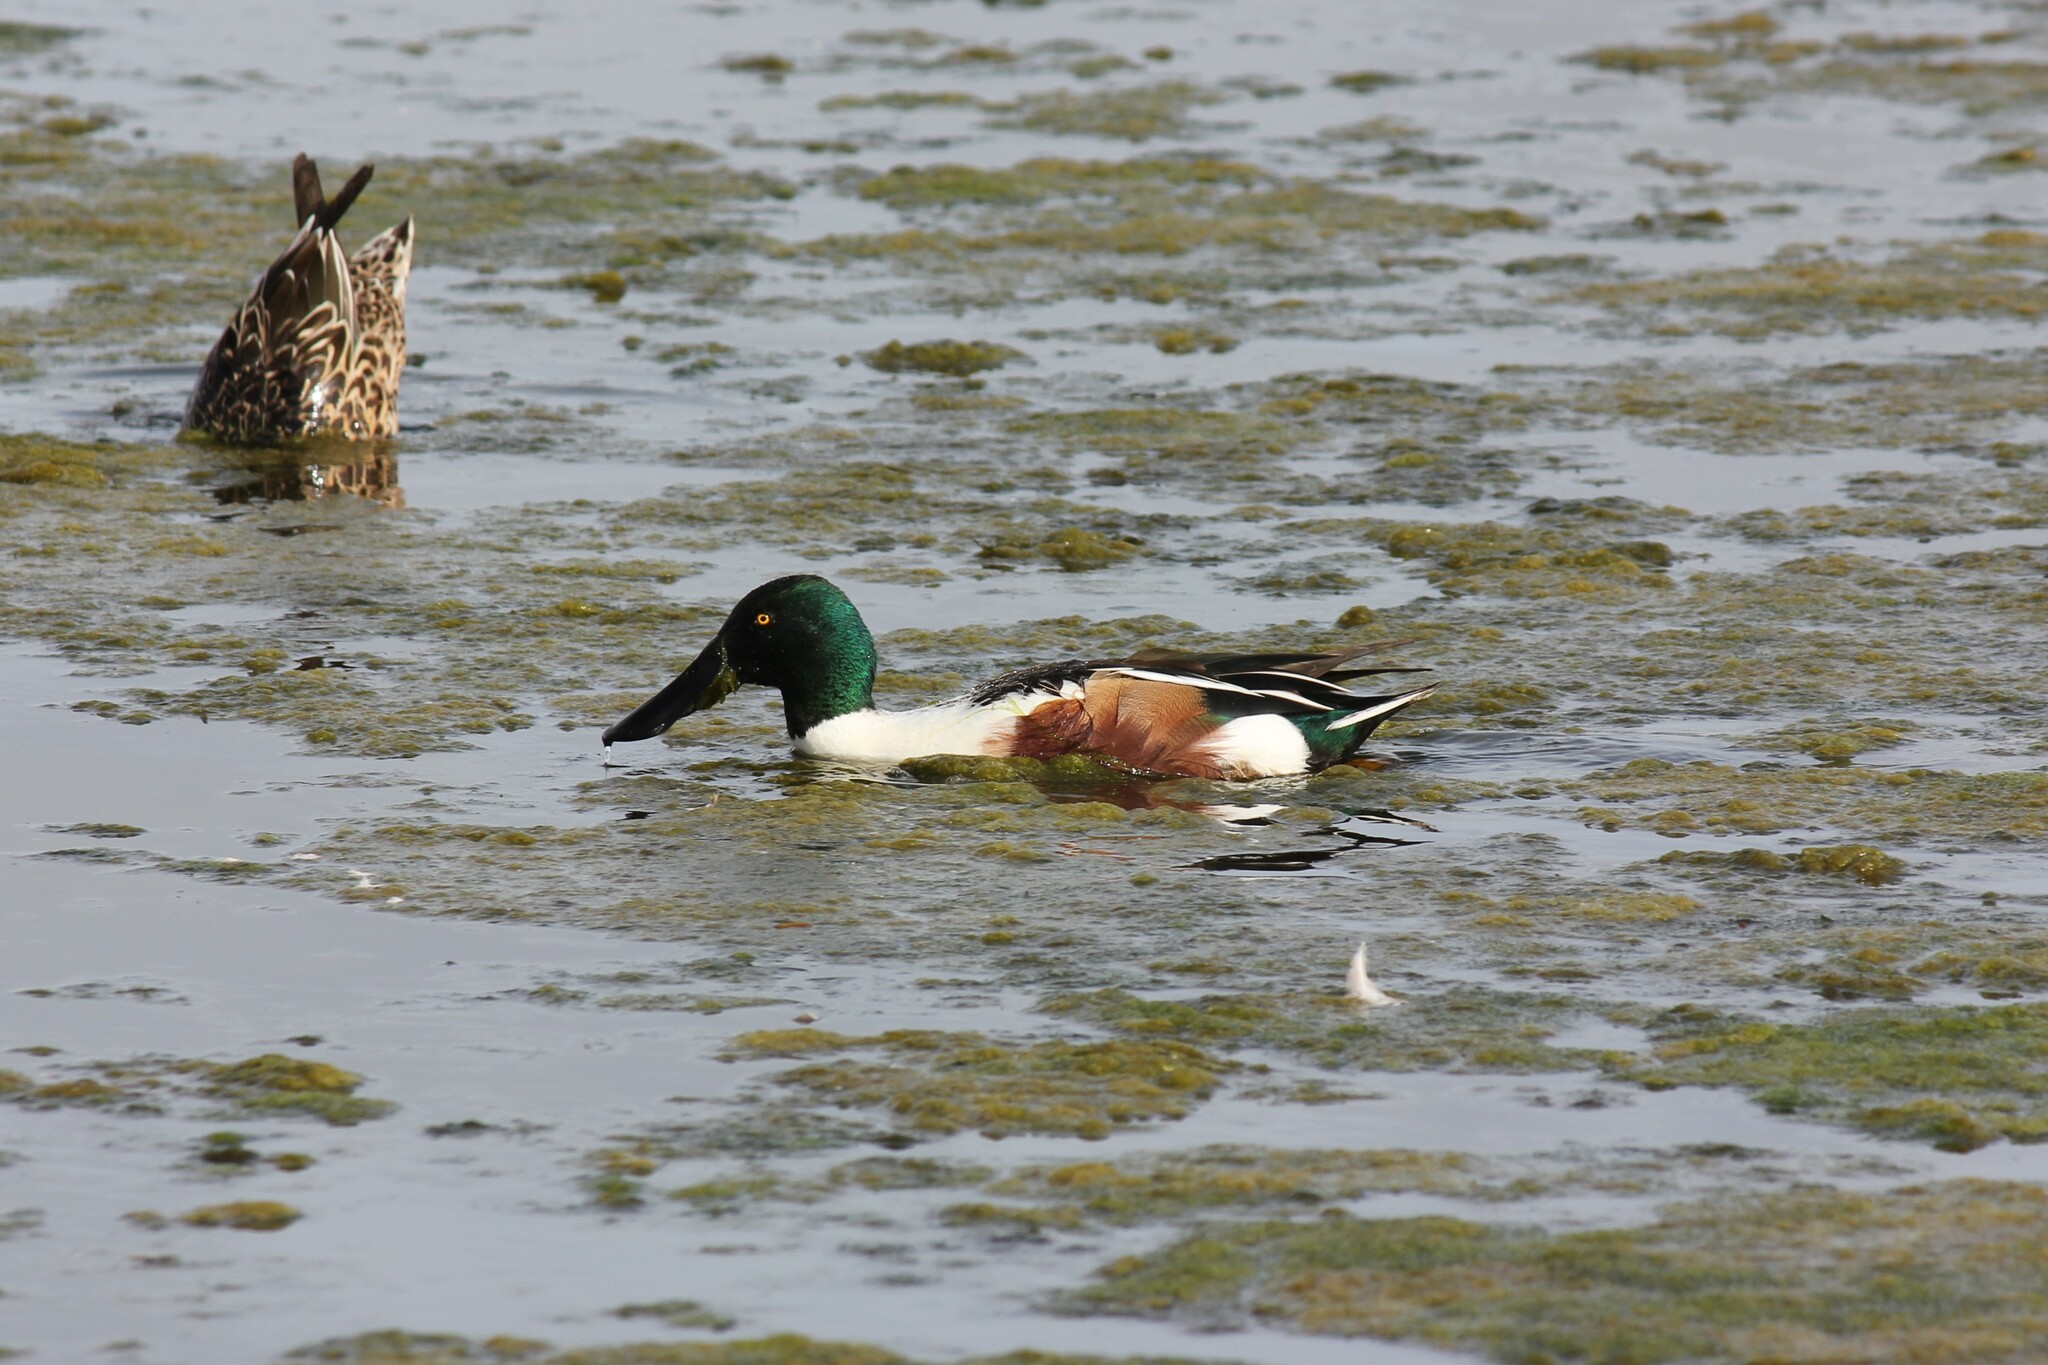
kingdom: Animalia
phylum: Chordata
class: Aves
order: Anseriformes
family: Anatidae
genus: Spatula
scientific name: Spatula clypeata
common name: Northern shoveler
